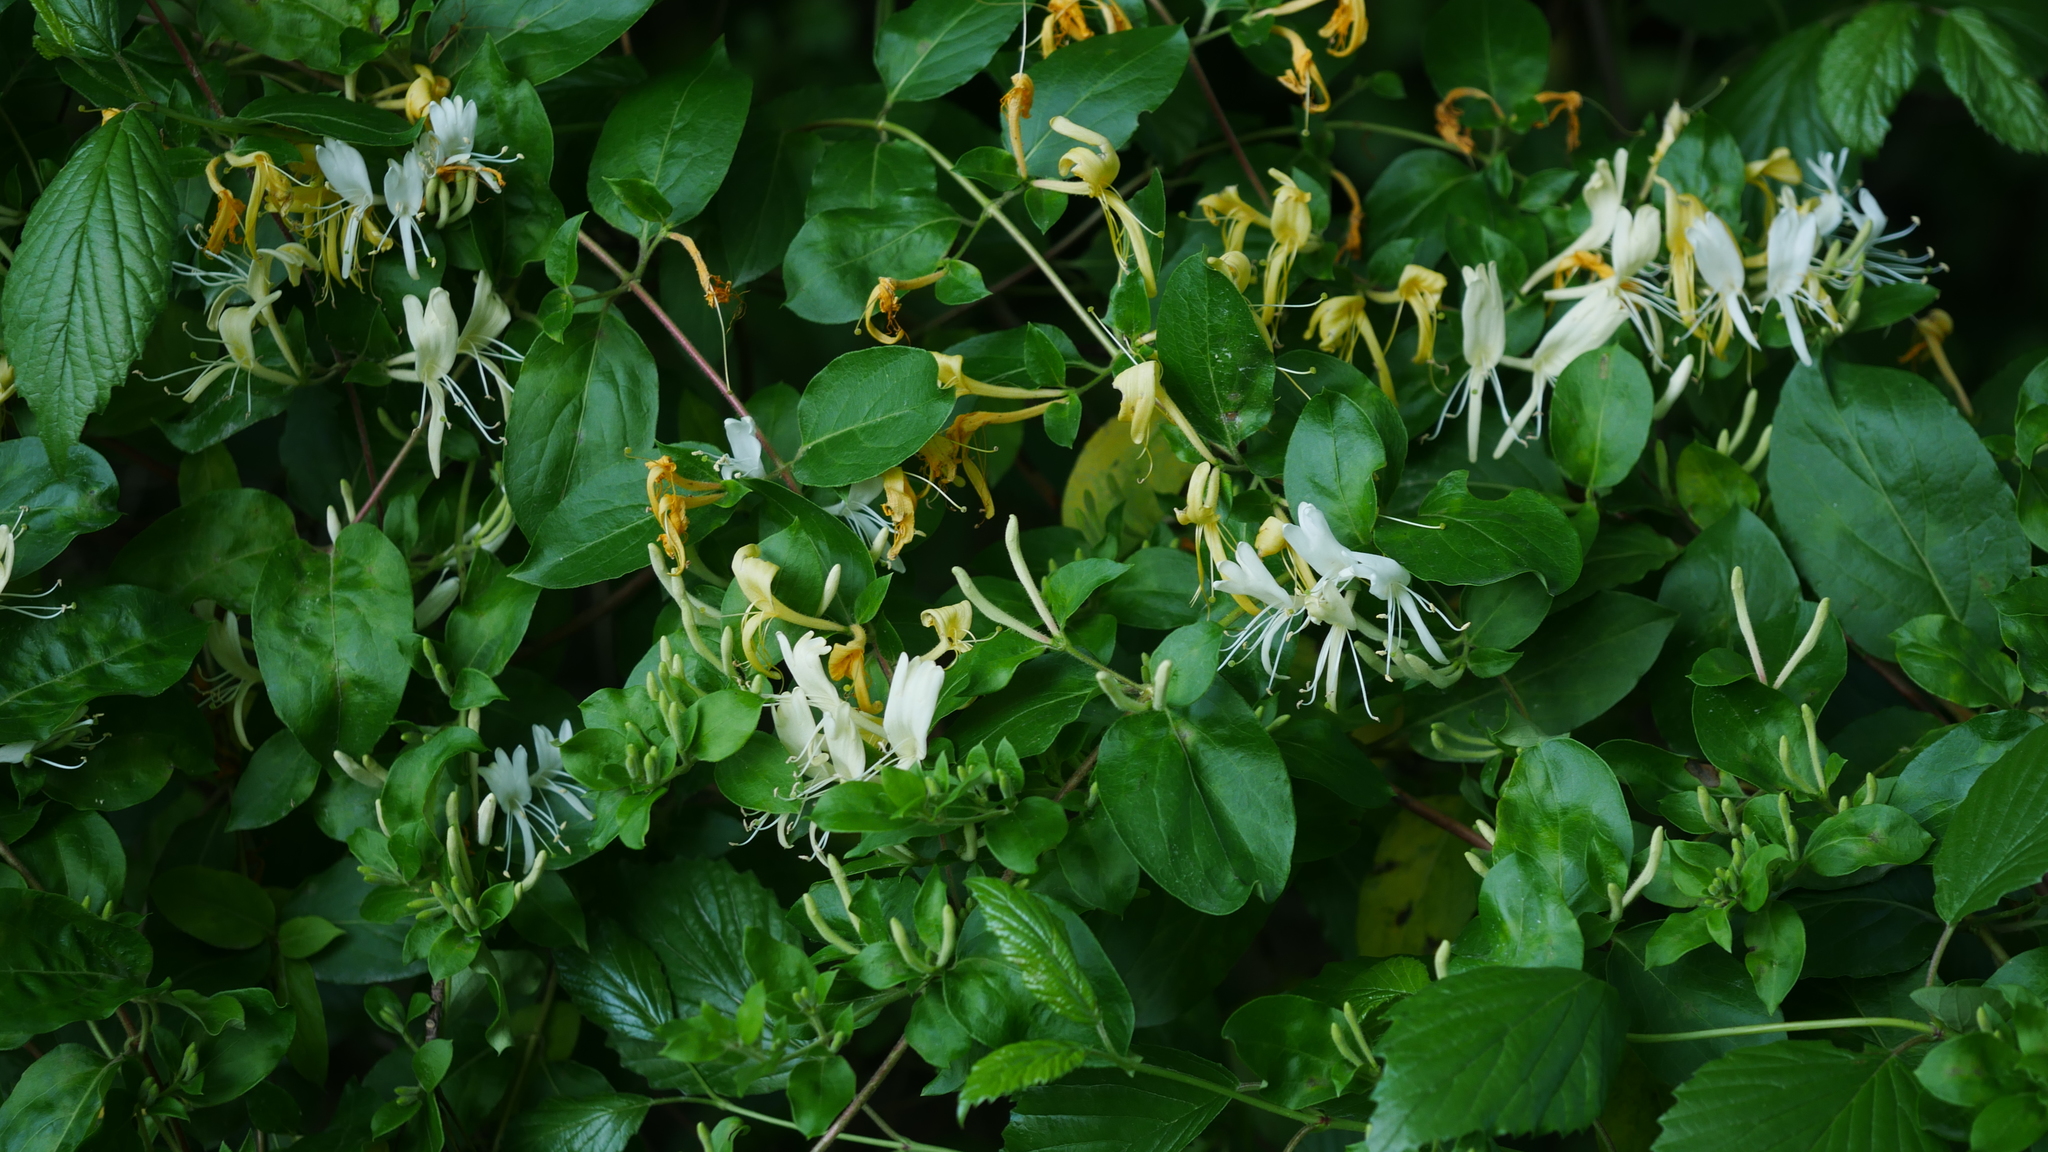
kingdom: Plantae
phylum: Tracheophyta
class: Magnoliopsida
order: Dipsacales
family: Caprifoliaceae
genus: Lonicera
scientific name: Lonicera japonica
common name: Japanese honeysuckle
